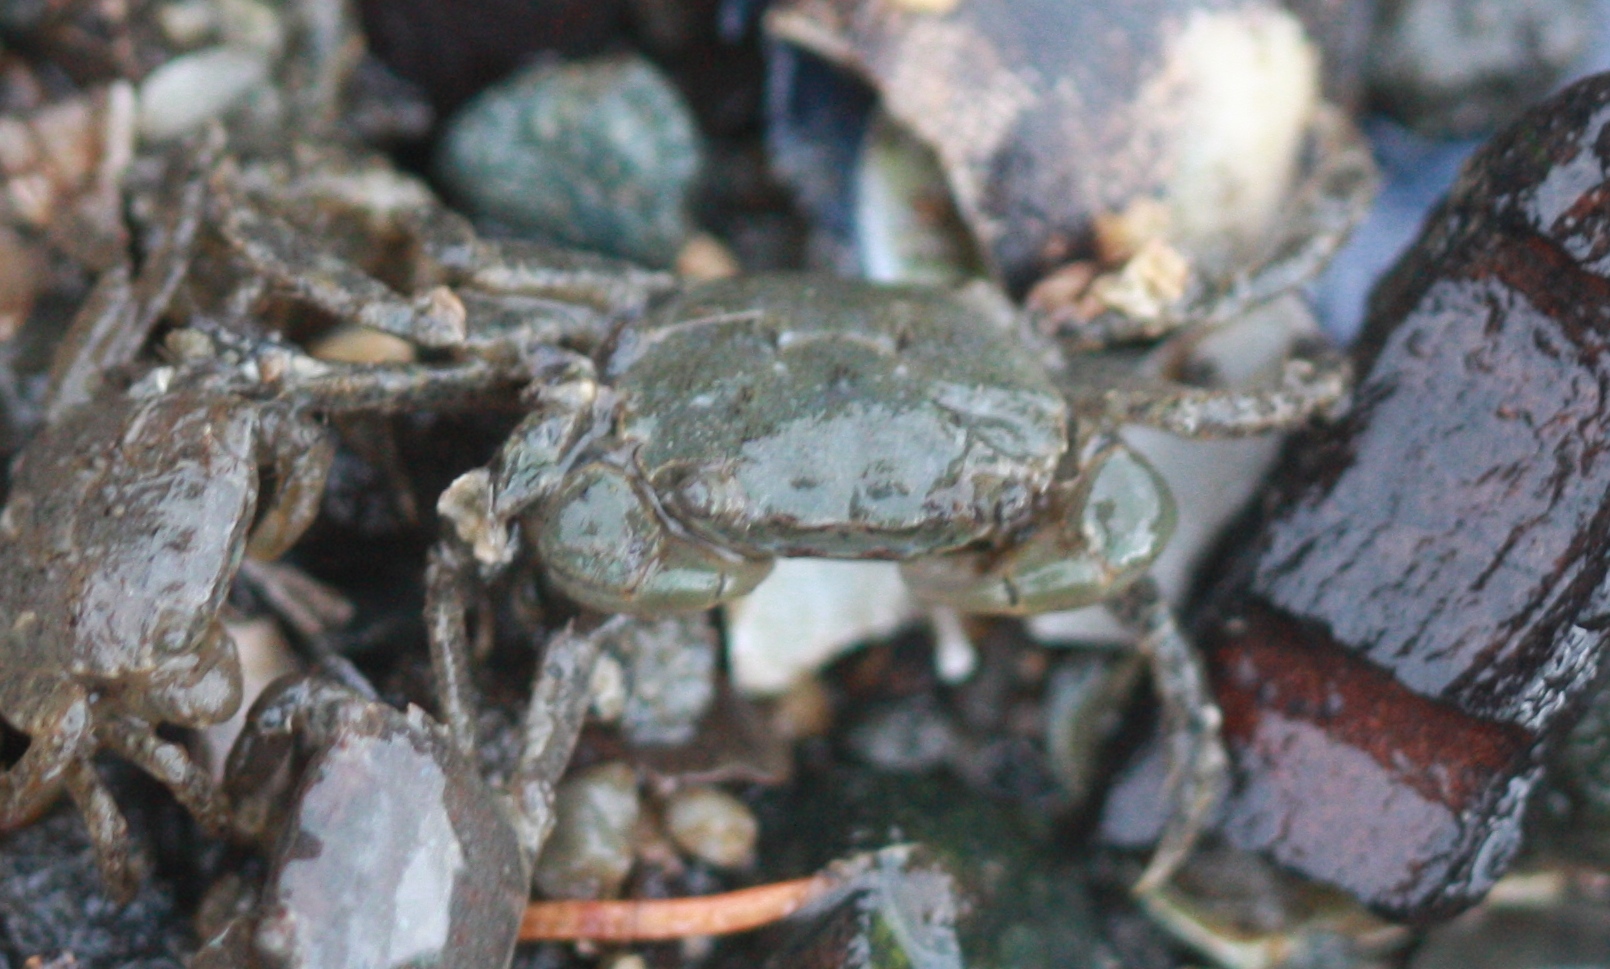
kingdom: Animalia
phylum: Arthropoda
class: Malacostraca
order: Decapoda
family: Varunidae
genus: Hemigrapsus
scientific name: Hemigrapsus oregonensis
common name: Yellow shore crab
